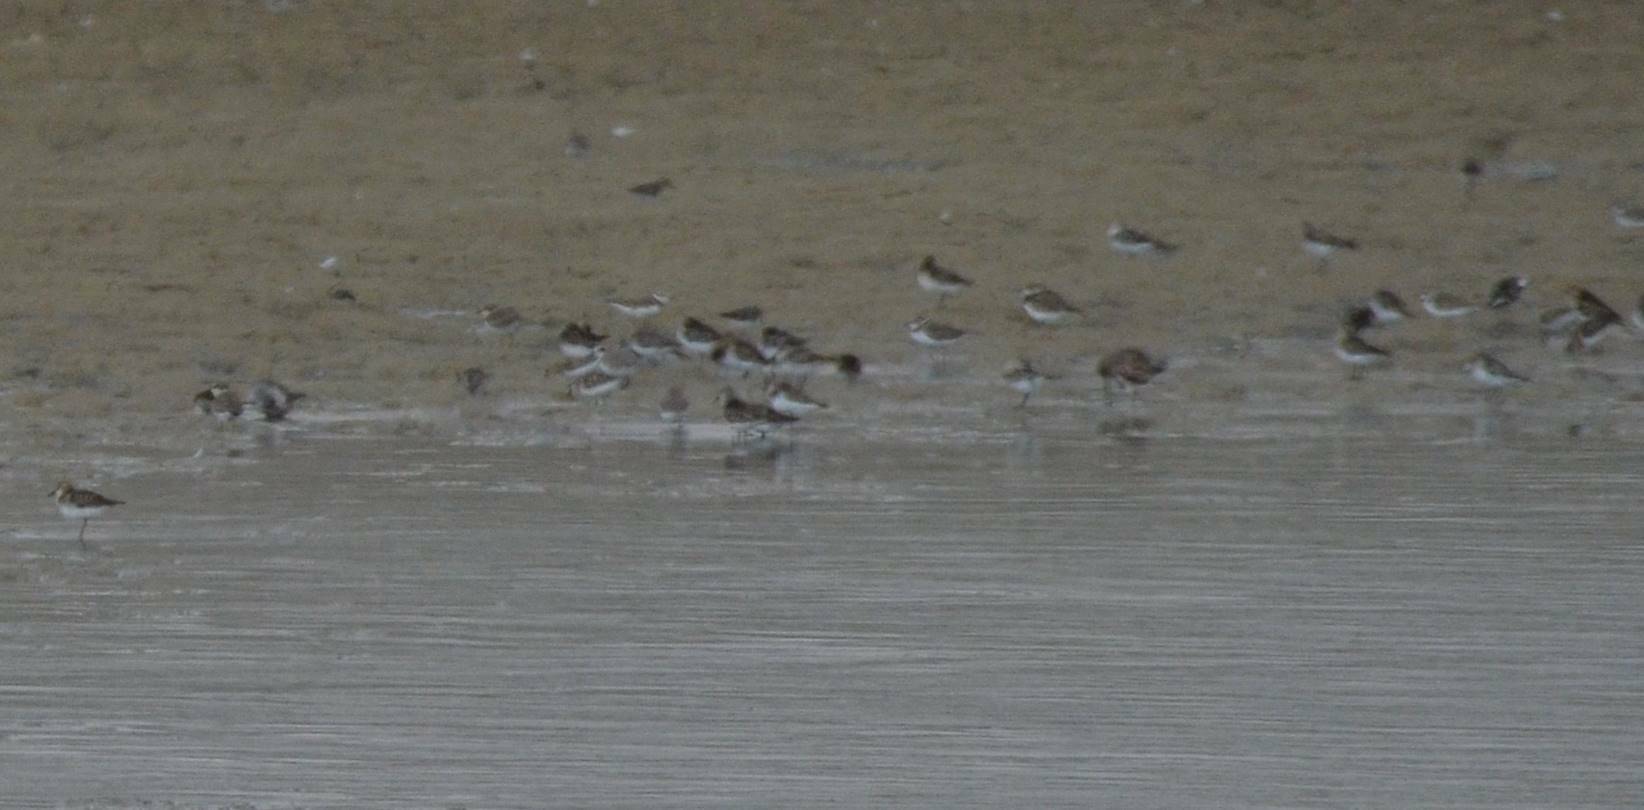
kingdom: Animalia
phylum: Chordata
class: Aves
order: Charadriiformes
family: Charadriidae
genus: Charadrius
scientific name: Charadrius dubius
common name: Little ringed plover
